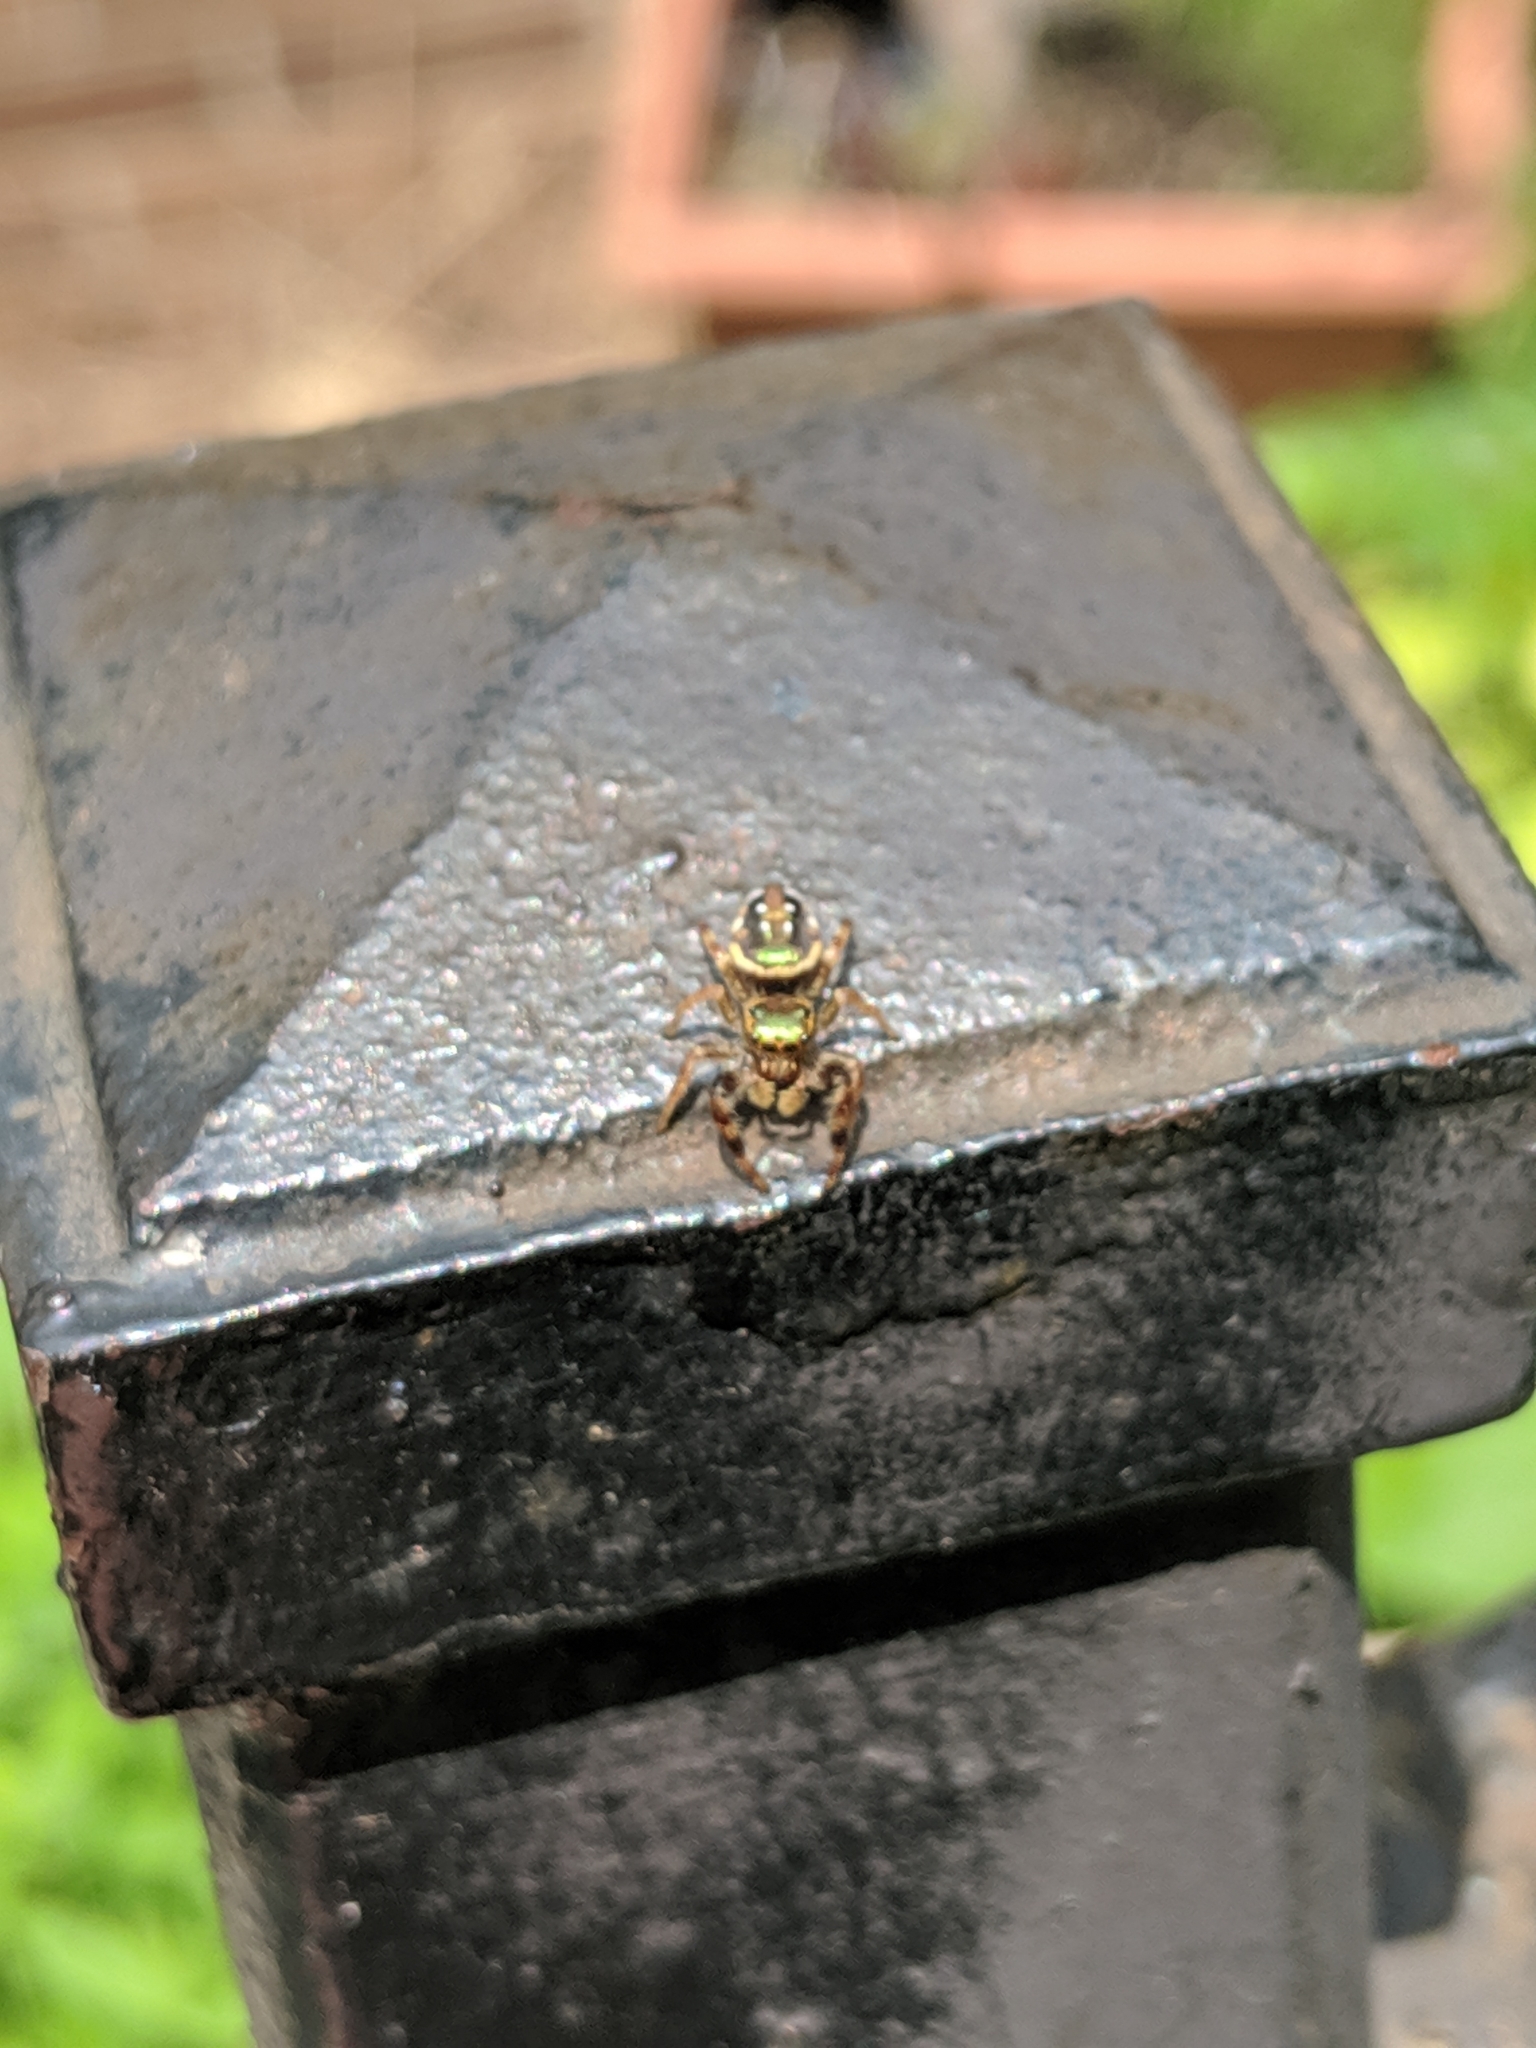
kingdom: Animalia
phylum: Arthropoda
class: Arachnida
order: Araneae
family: Salticidae
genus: Paraphidippus
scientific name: Paraphidippus aurantius
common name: Jumping spiders
